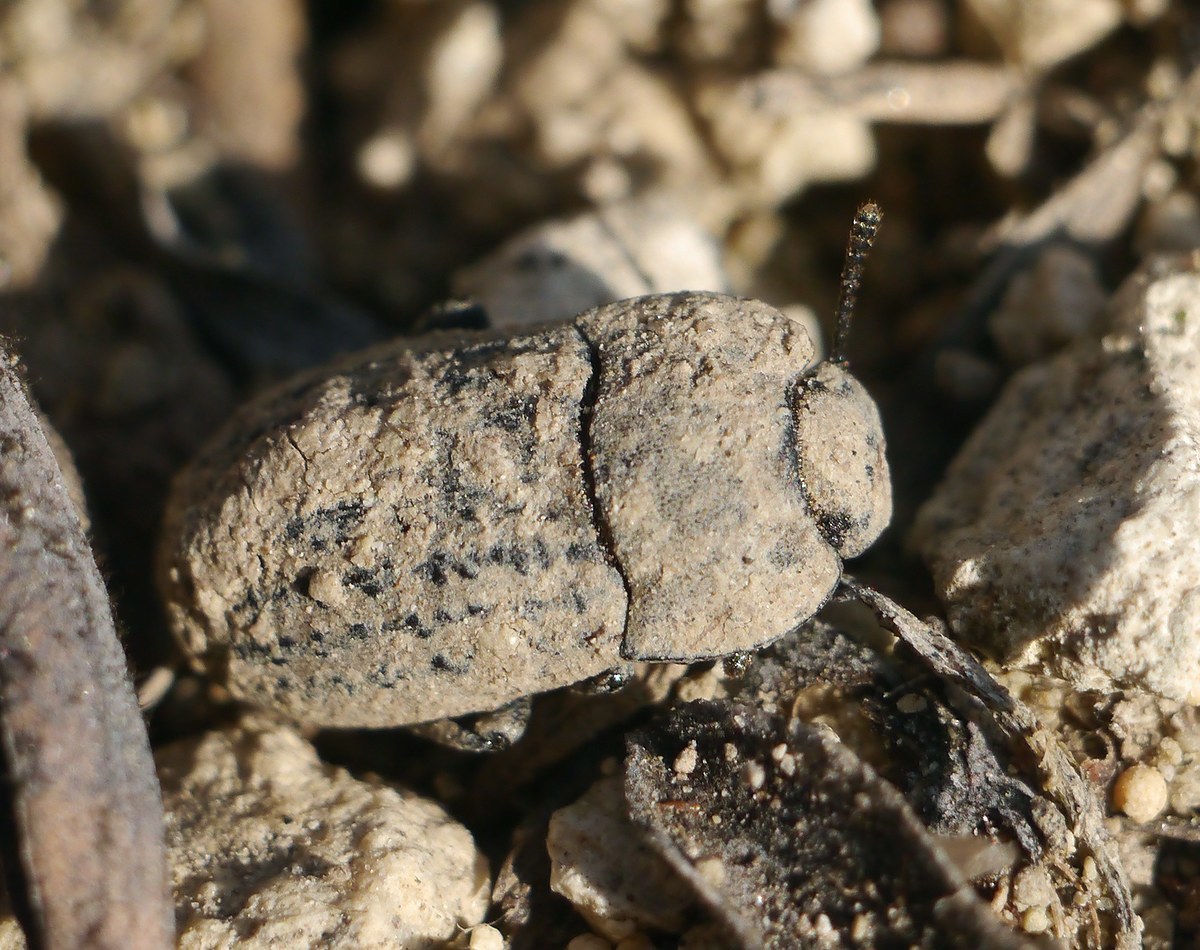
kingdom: Animalia
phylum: Arthropoda
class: Insecta
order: Coleoptera
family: Tenebrionidae
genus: Opatrum
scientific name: Opatrum sabulosum
